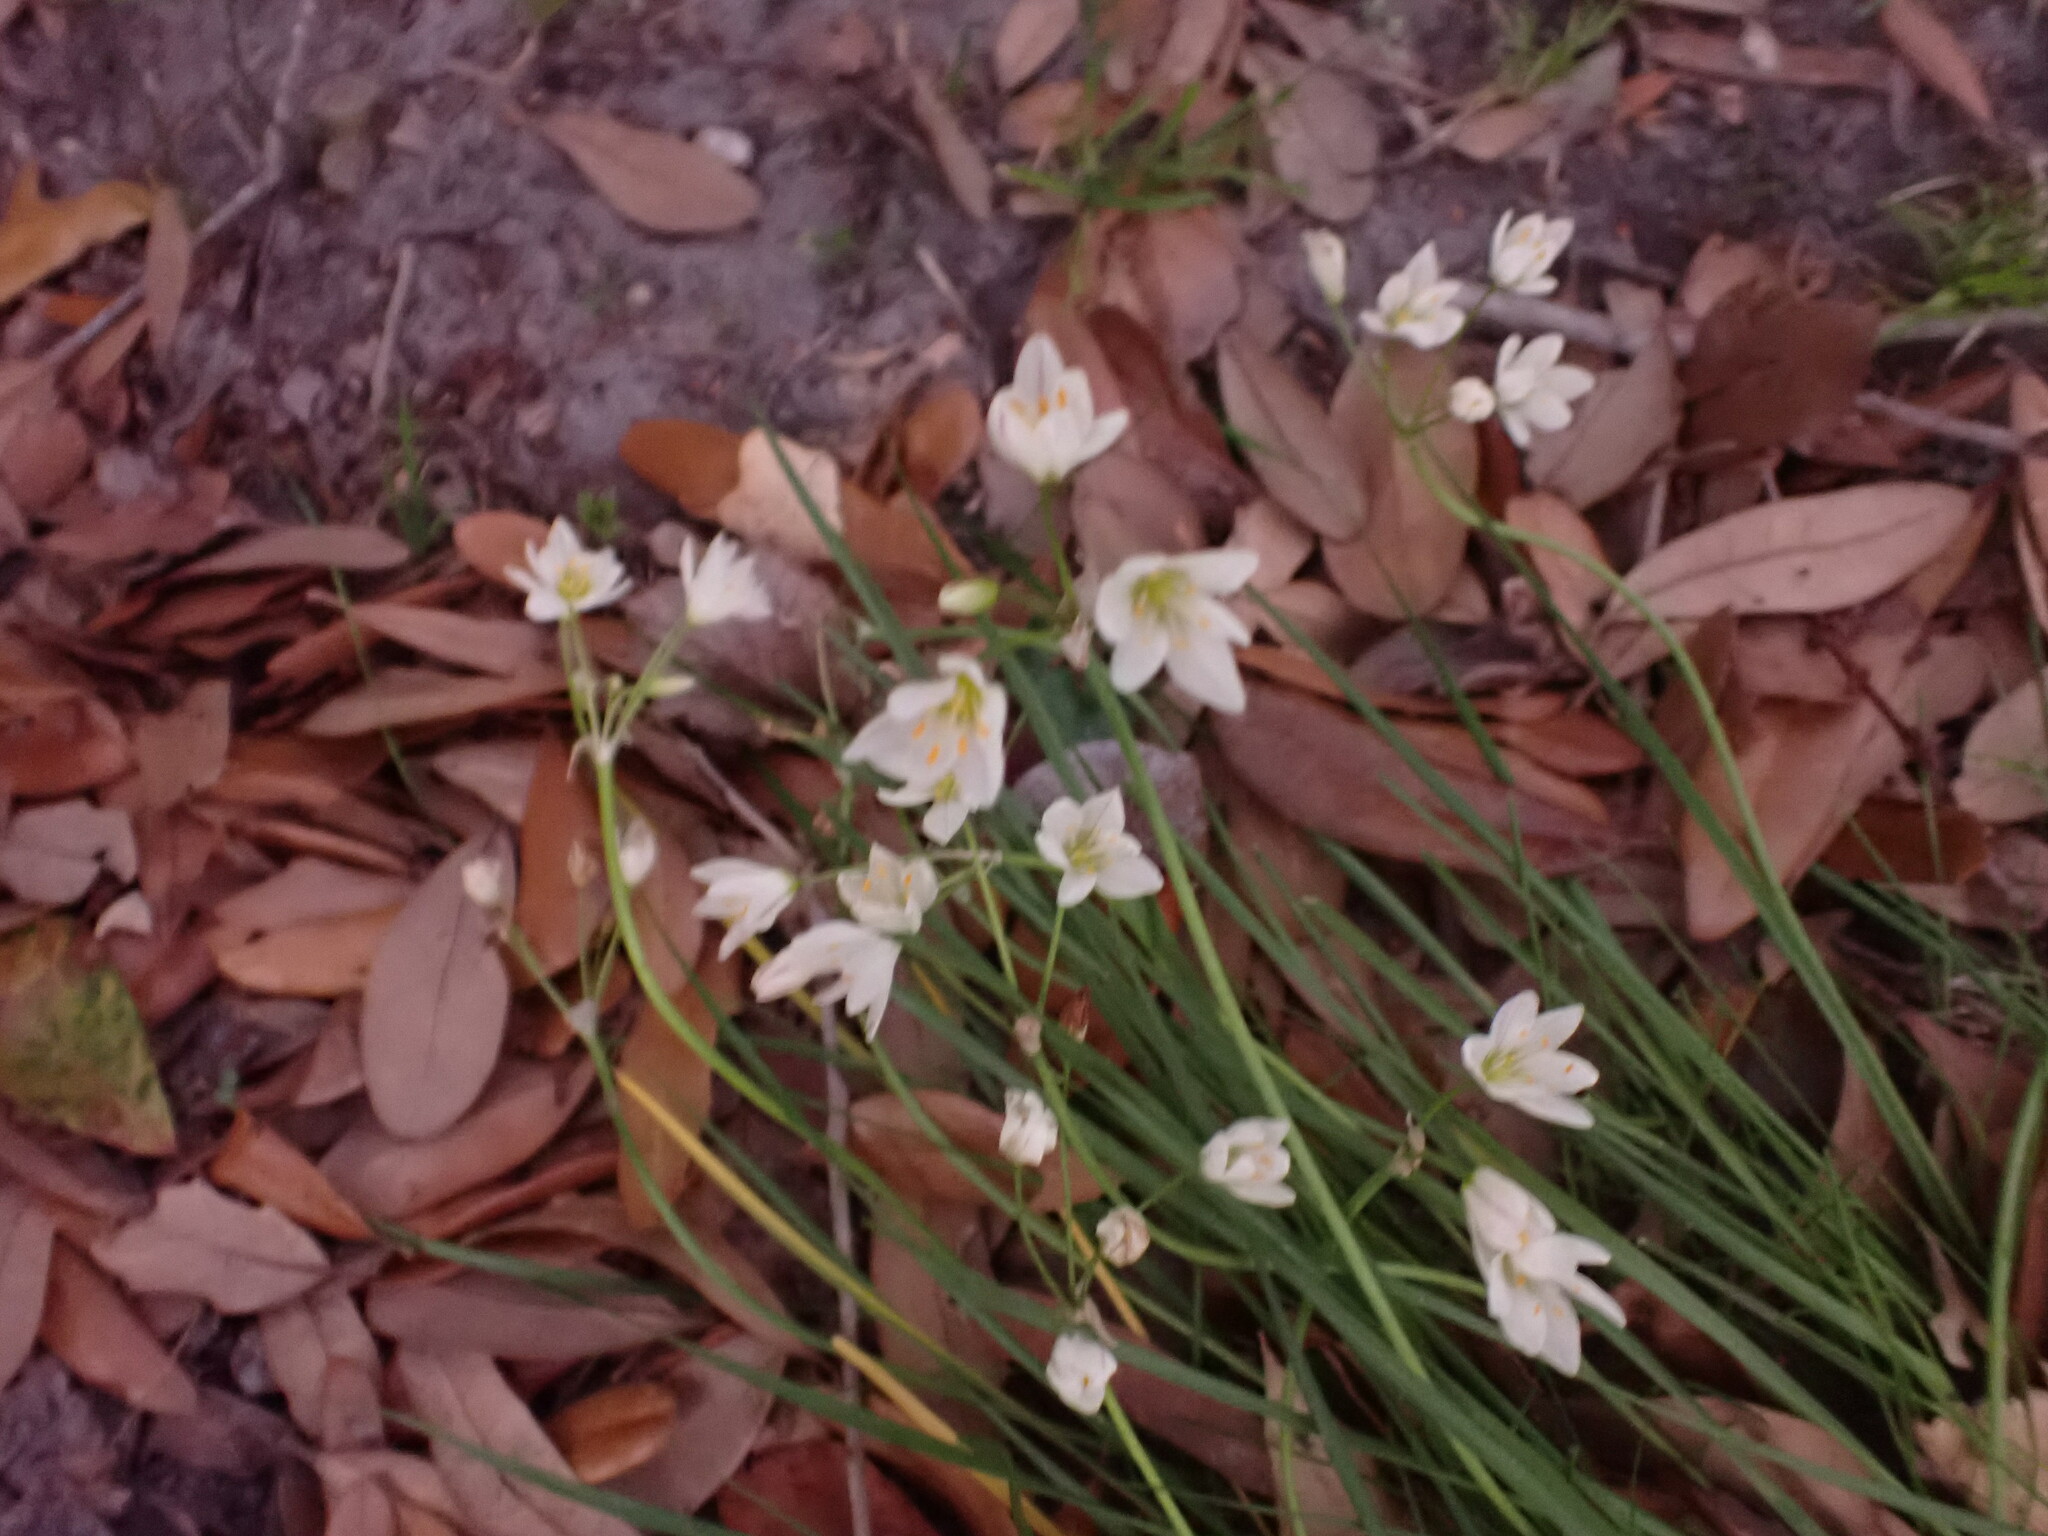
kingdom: Plantae
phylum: Tracheophyta
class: Liliopsida
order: Asparagales
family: Amaryllidaceae
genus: Nothoscordum
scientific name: Nothoscordum bivalve
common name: Crow-poison
